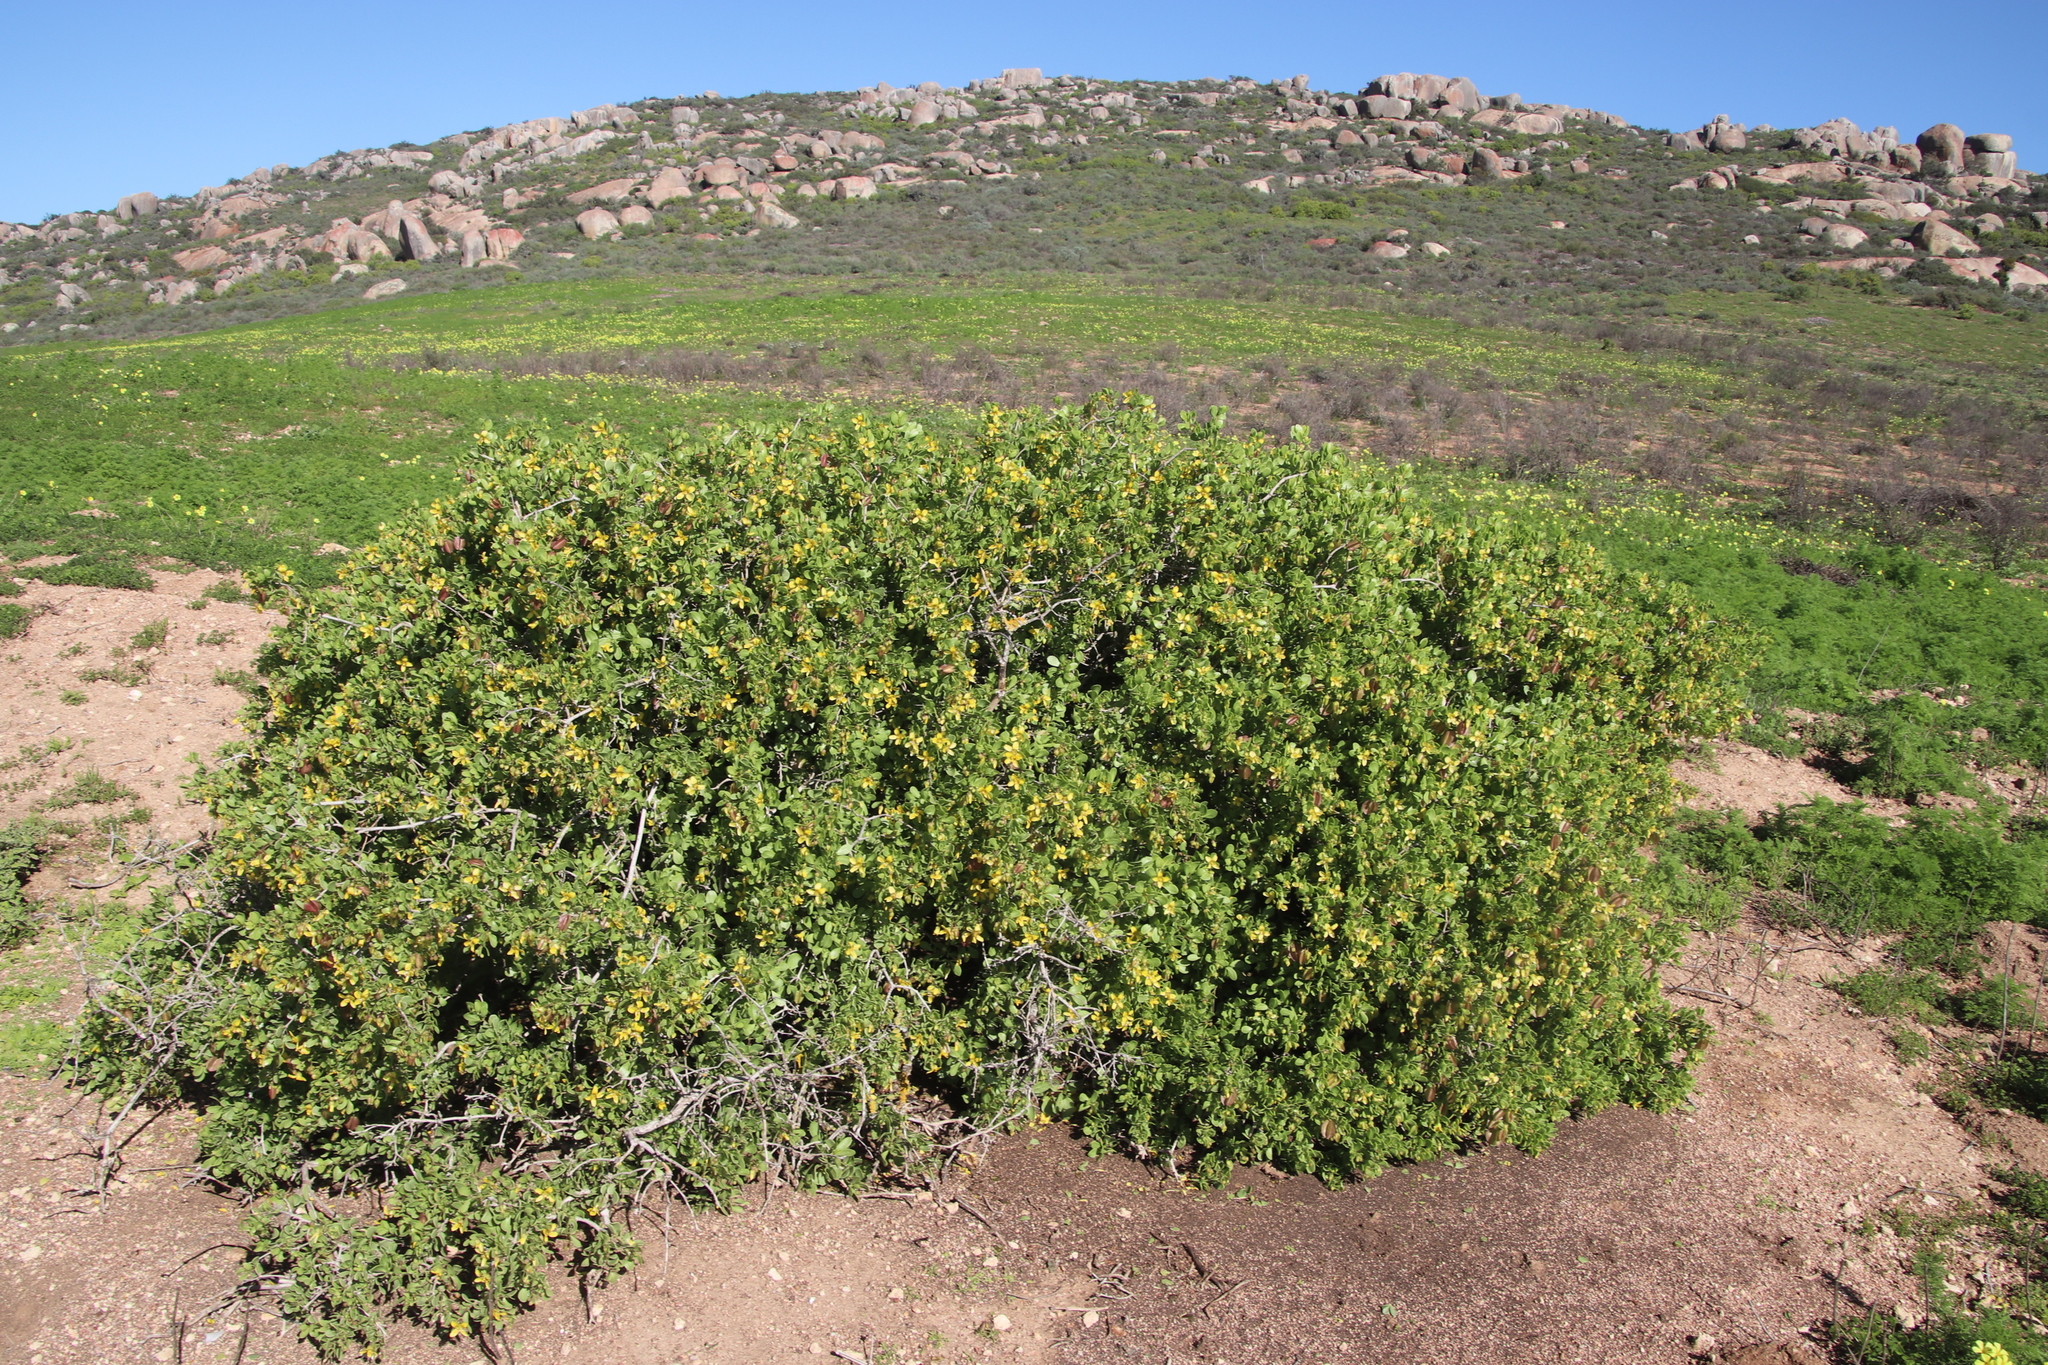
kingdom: Plantae
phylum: Tracheophyta
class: Magnoliopsida
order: Zygophyllales
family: Zygophyllaceae
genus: Roepera
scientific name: Roepera morgsana
